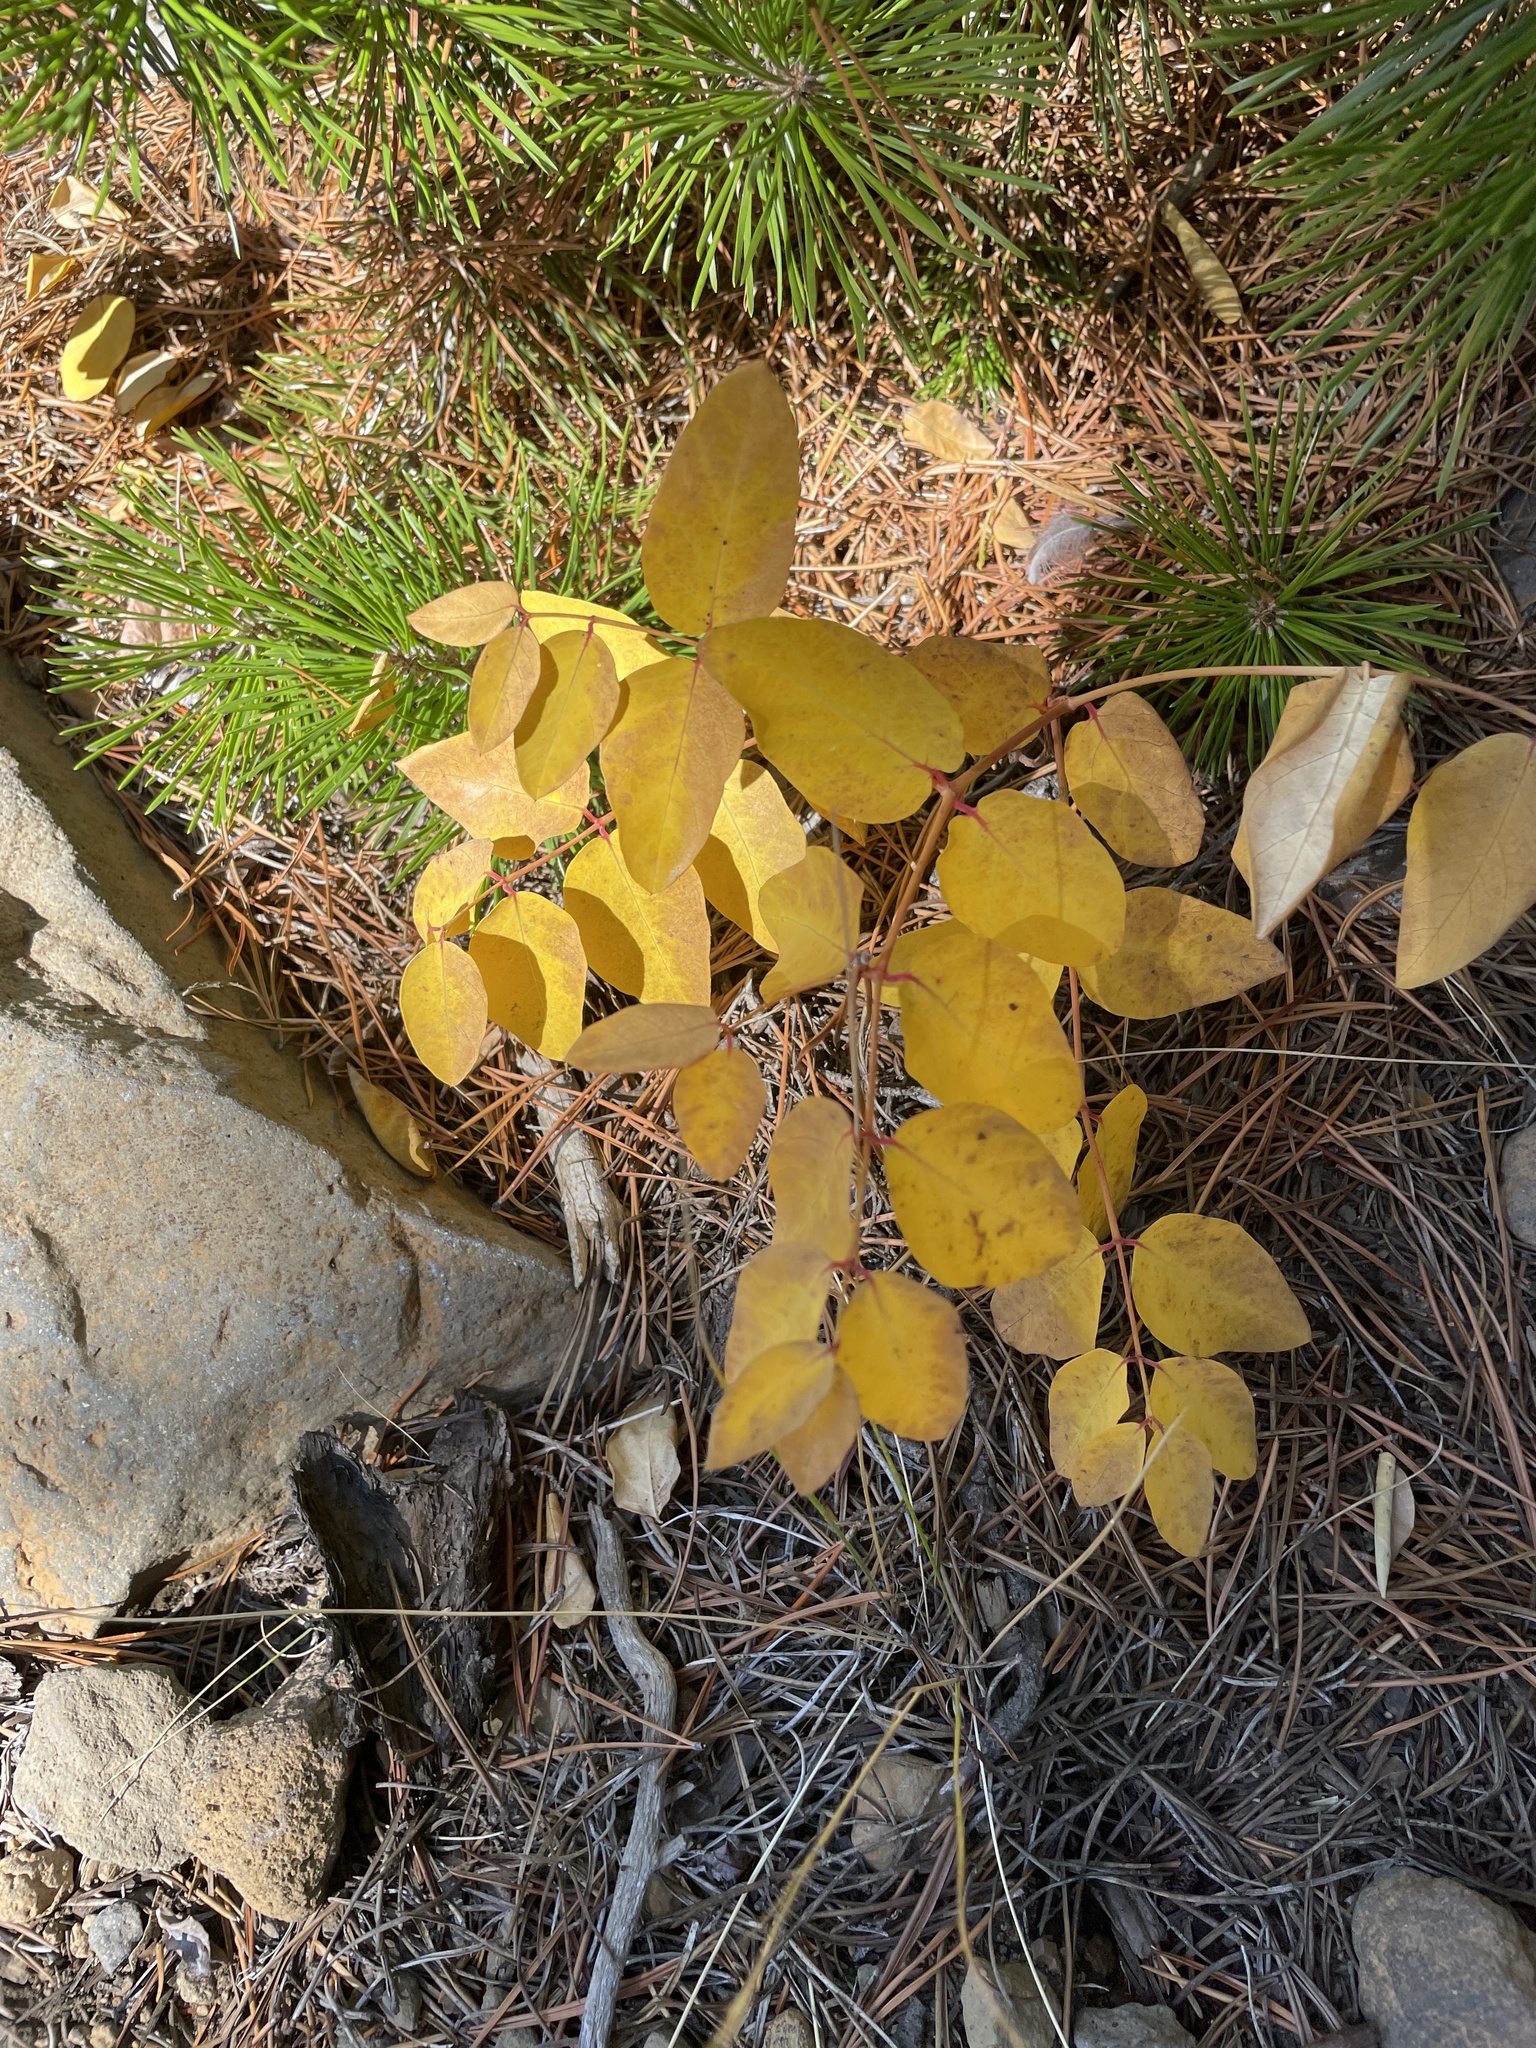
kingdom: Plantae
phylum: Tracheophyta
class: Magnoliopsida
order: Gentianales
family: Apocynaceae
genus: Apocynum
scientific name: Apocynum androsaemifolium
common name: Spreading dogbane
